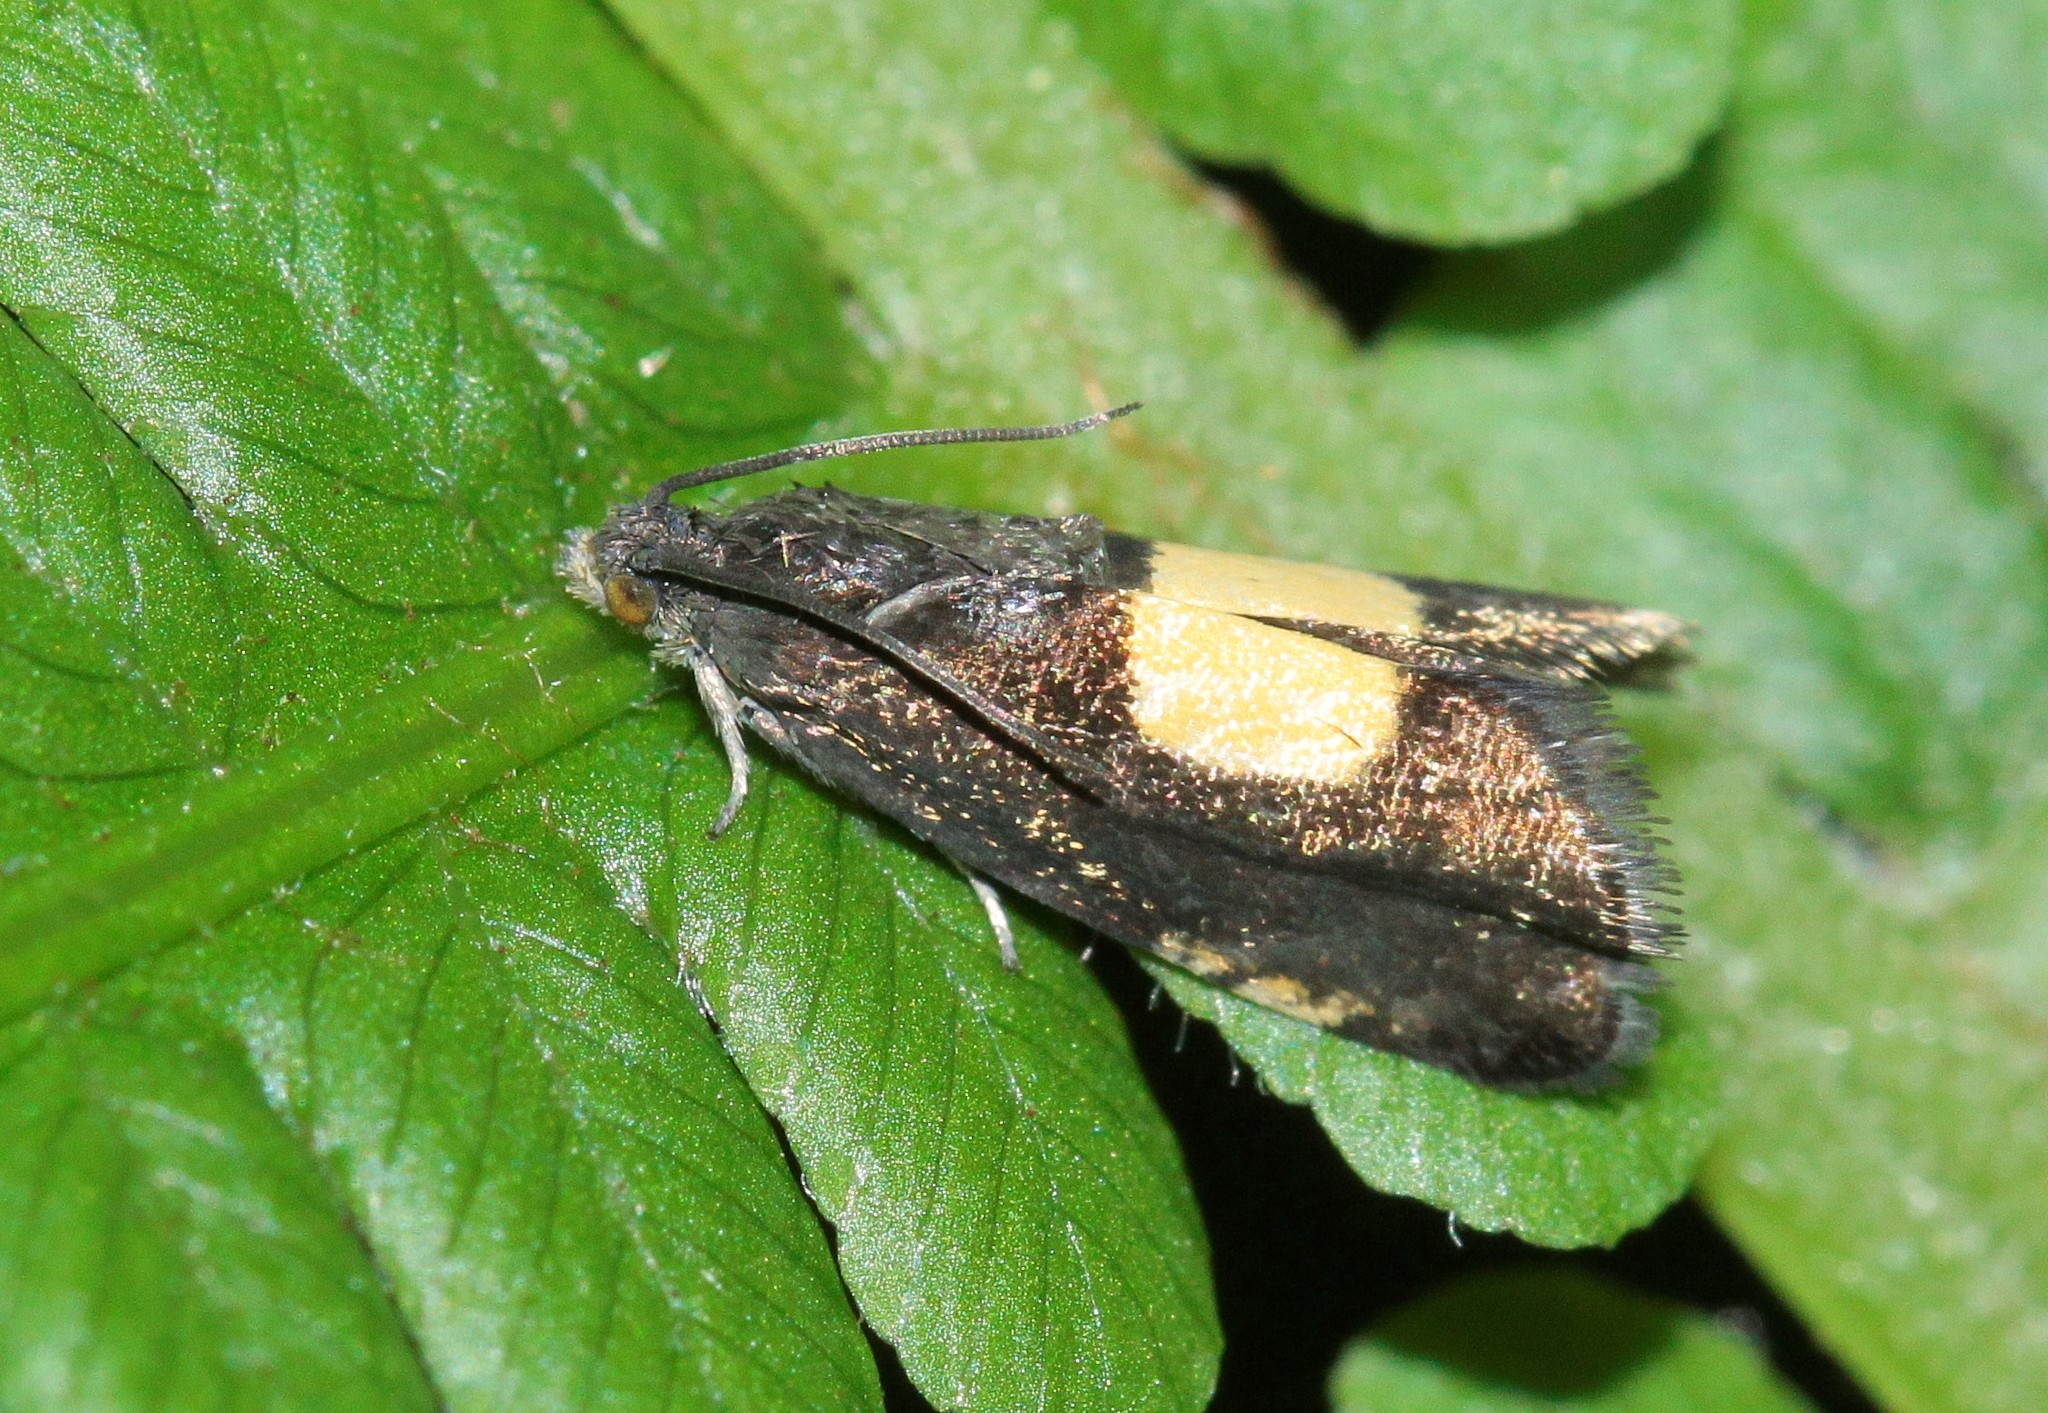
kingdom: Animalia
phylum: Arthropoda
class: Insecta
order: Lepidoptera
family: Tortricidae
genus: Pammene
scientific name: Pammene trauniana
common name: Maple piercer
